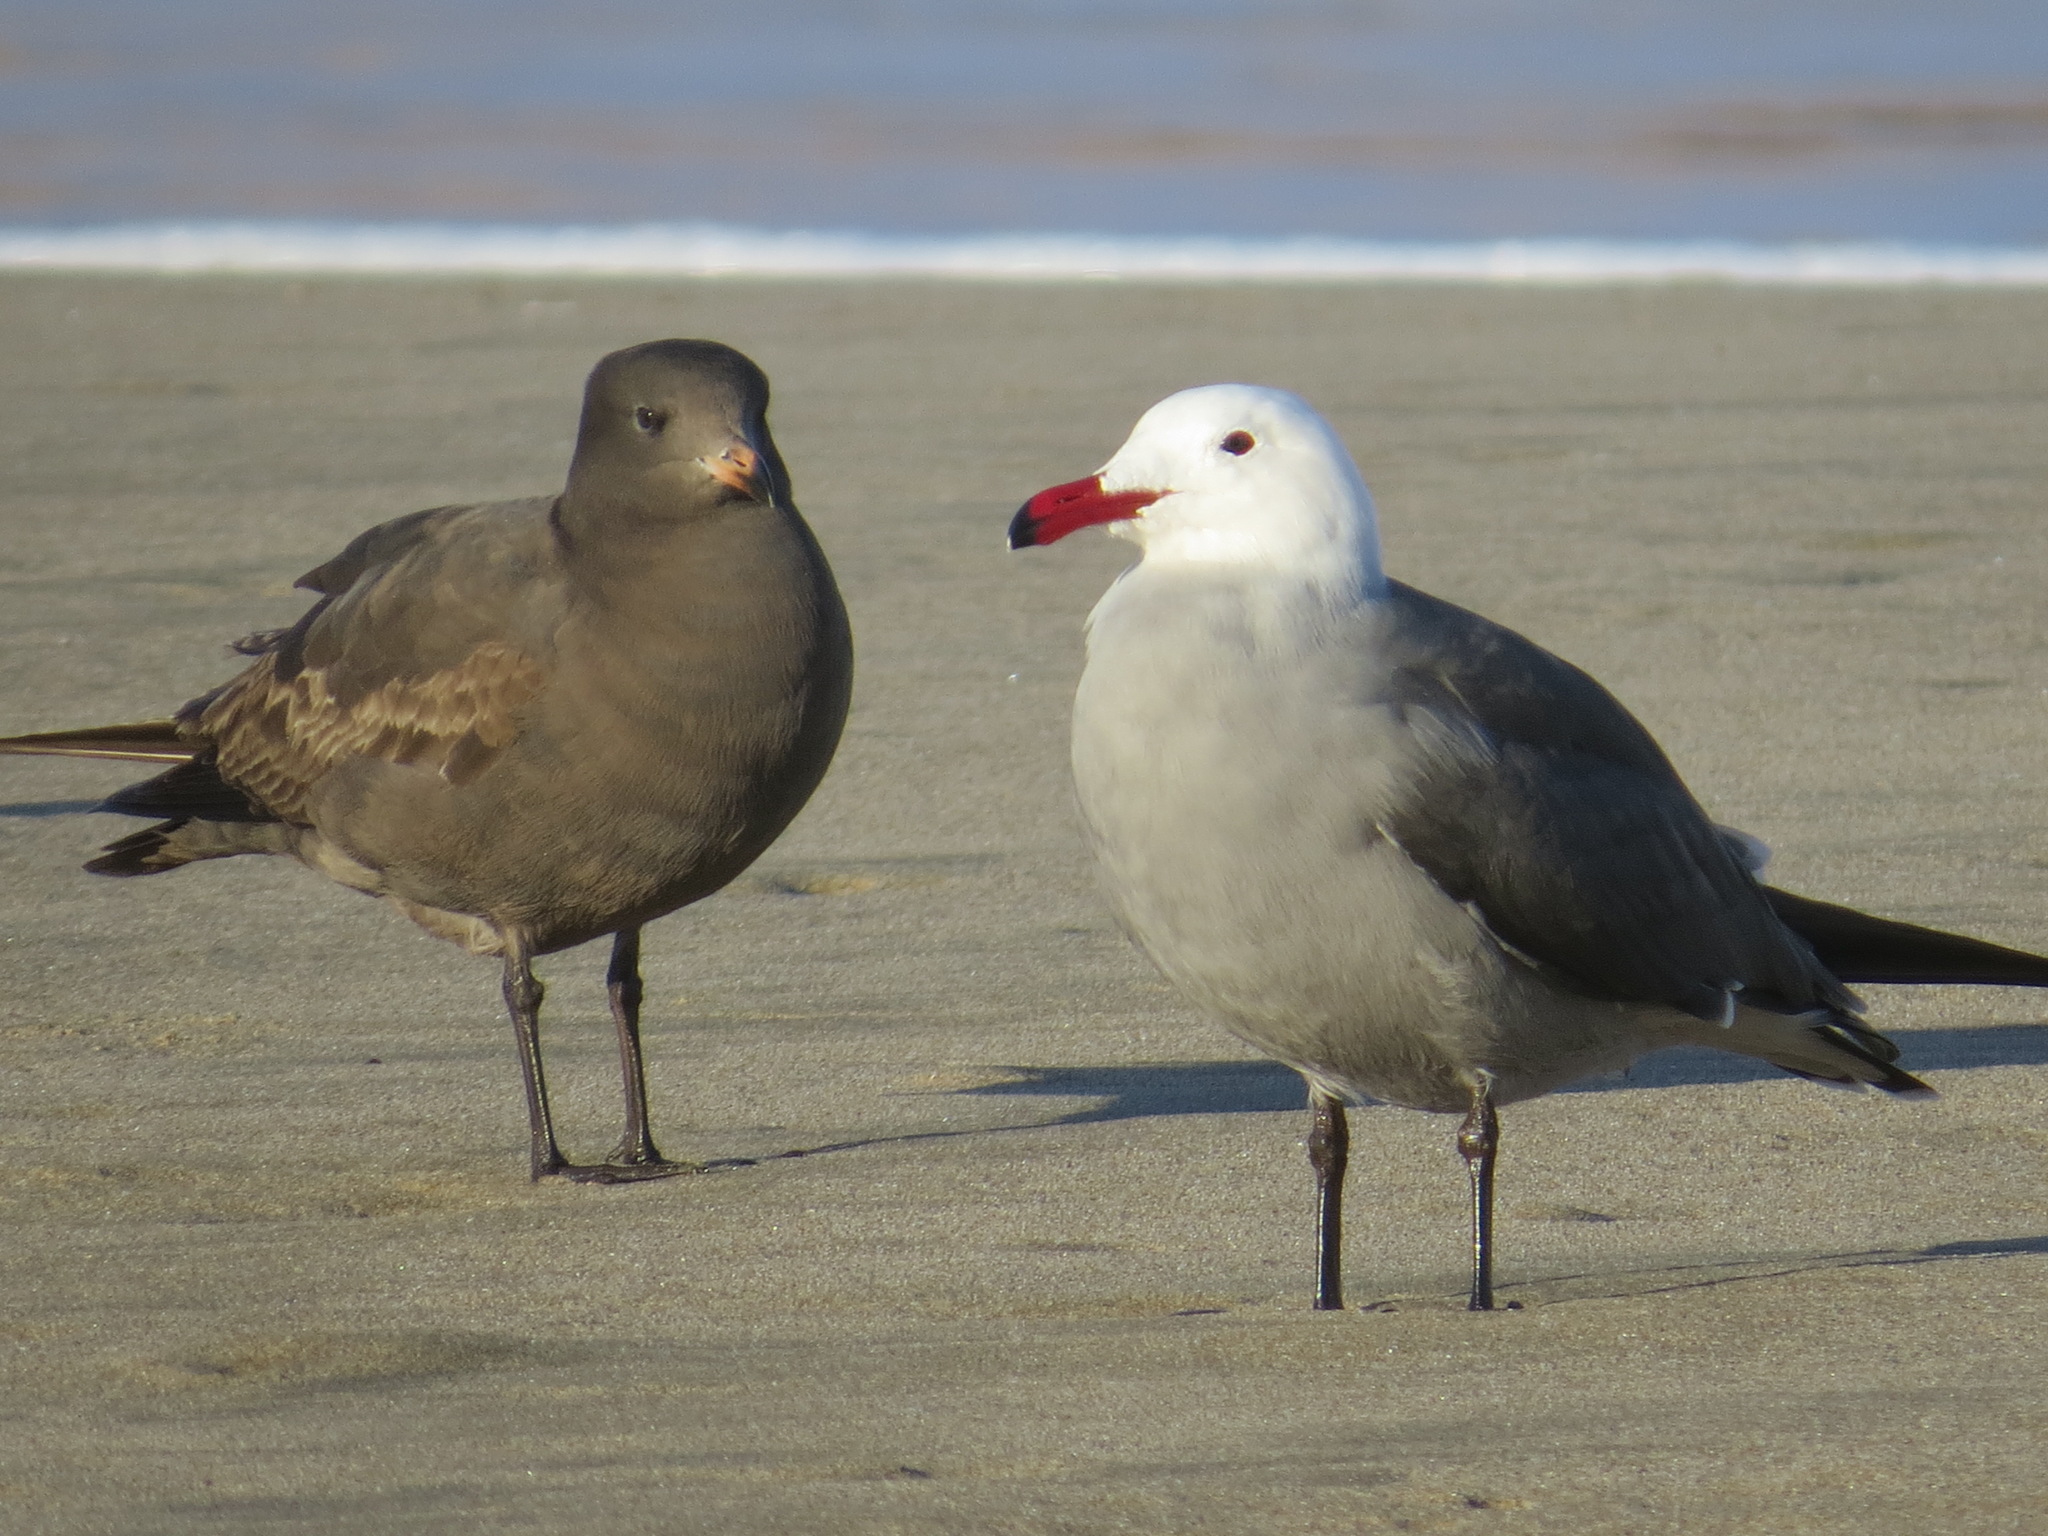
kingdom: Animalia
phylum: Chordata
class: Aves
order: Charadriiformes
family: Laridae
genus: Larus
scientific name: Larus heermanni
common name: Heermann's gull
